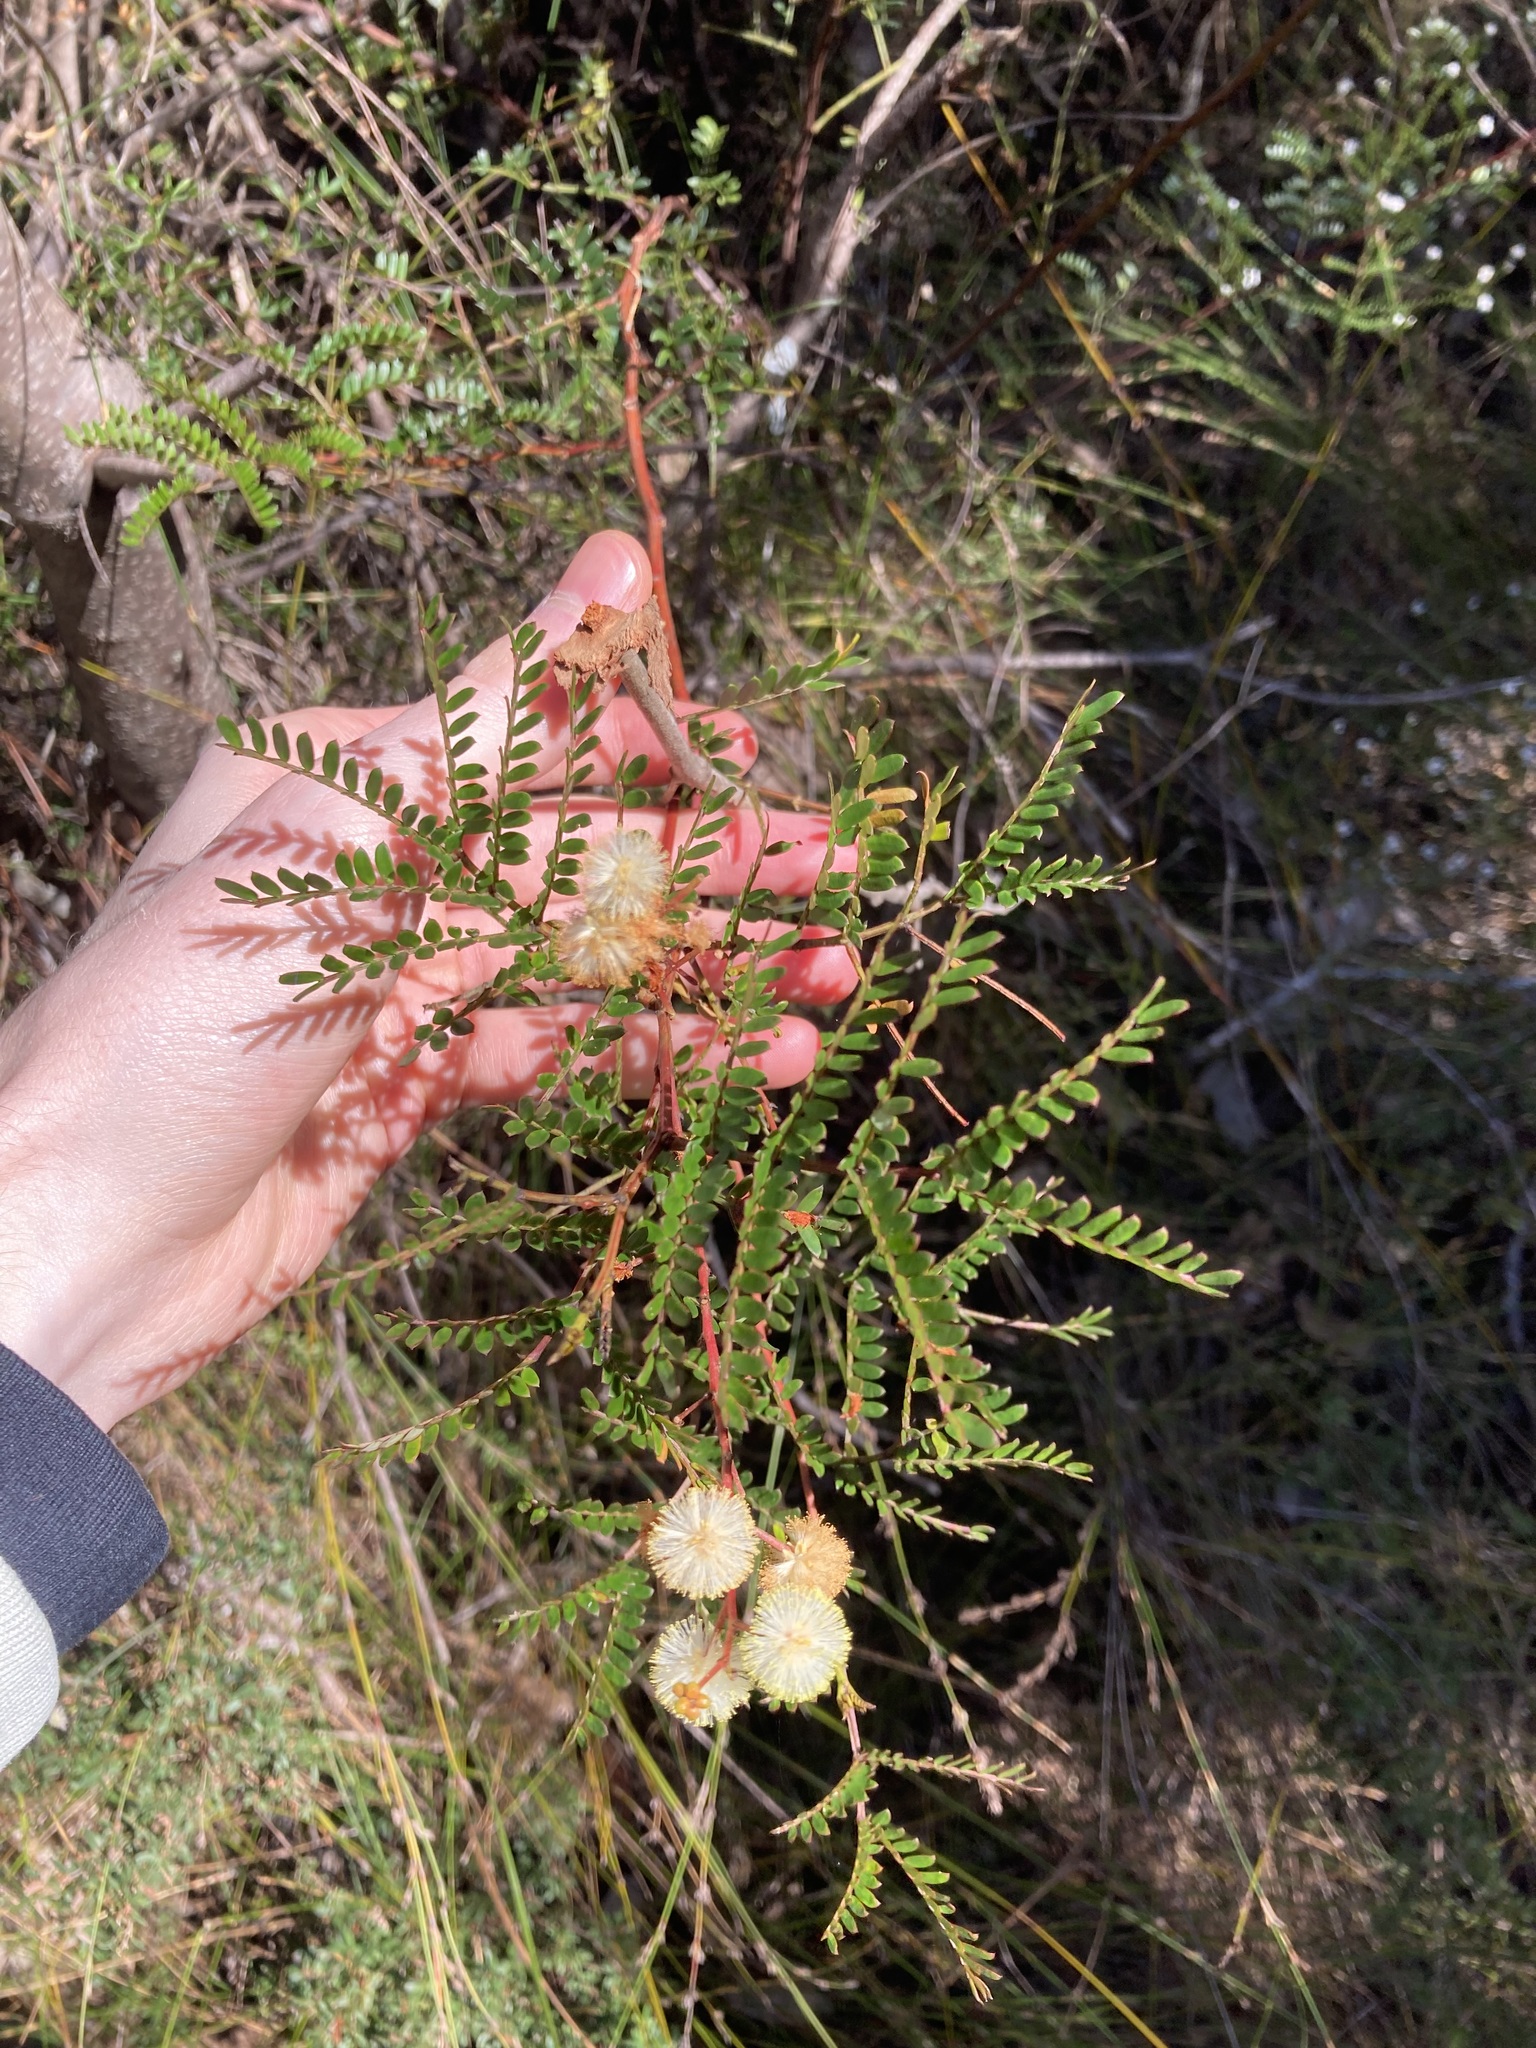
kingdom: Plantae
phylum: Tracheophyta
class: Magnoliopsida
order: Fabales
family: Fabaceae
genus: Acacia
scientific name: Acacia terminalis
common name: Cedar wattle
